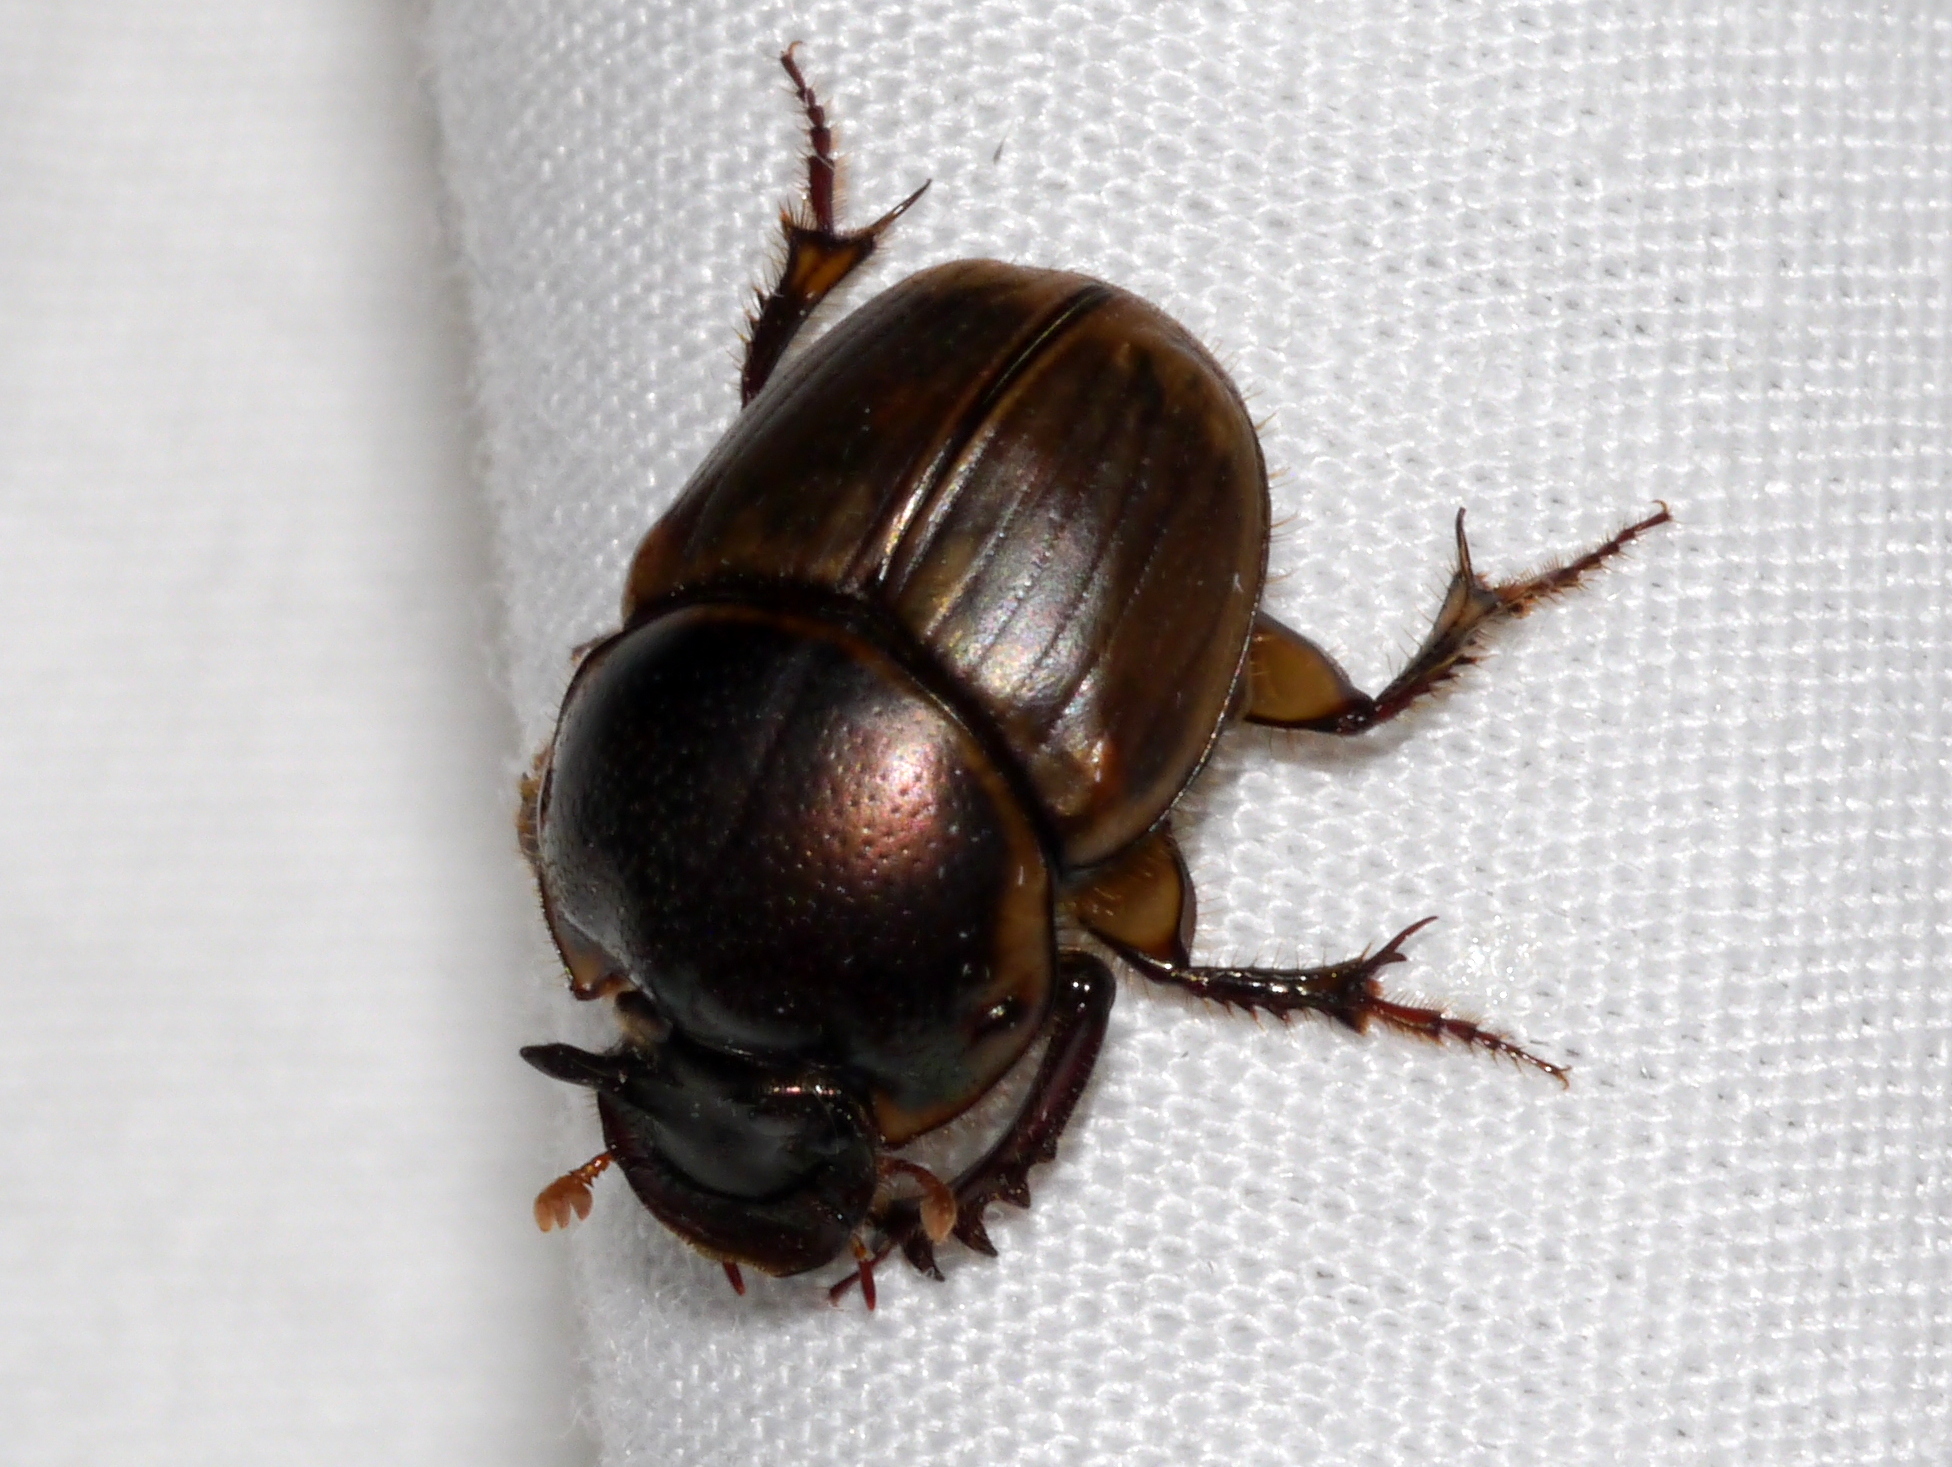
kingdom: Animalia
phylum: Arthropoda
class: Insecta
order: Coleoptera
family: Scarabaeidae
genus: Digitonthophagus
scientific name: Digitonthophagus gazella
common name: Brown dung beetle
